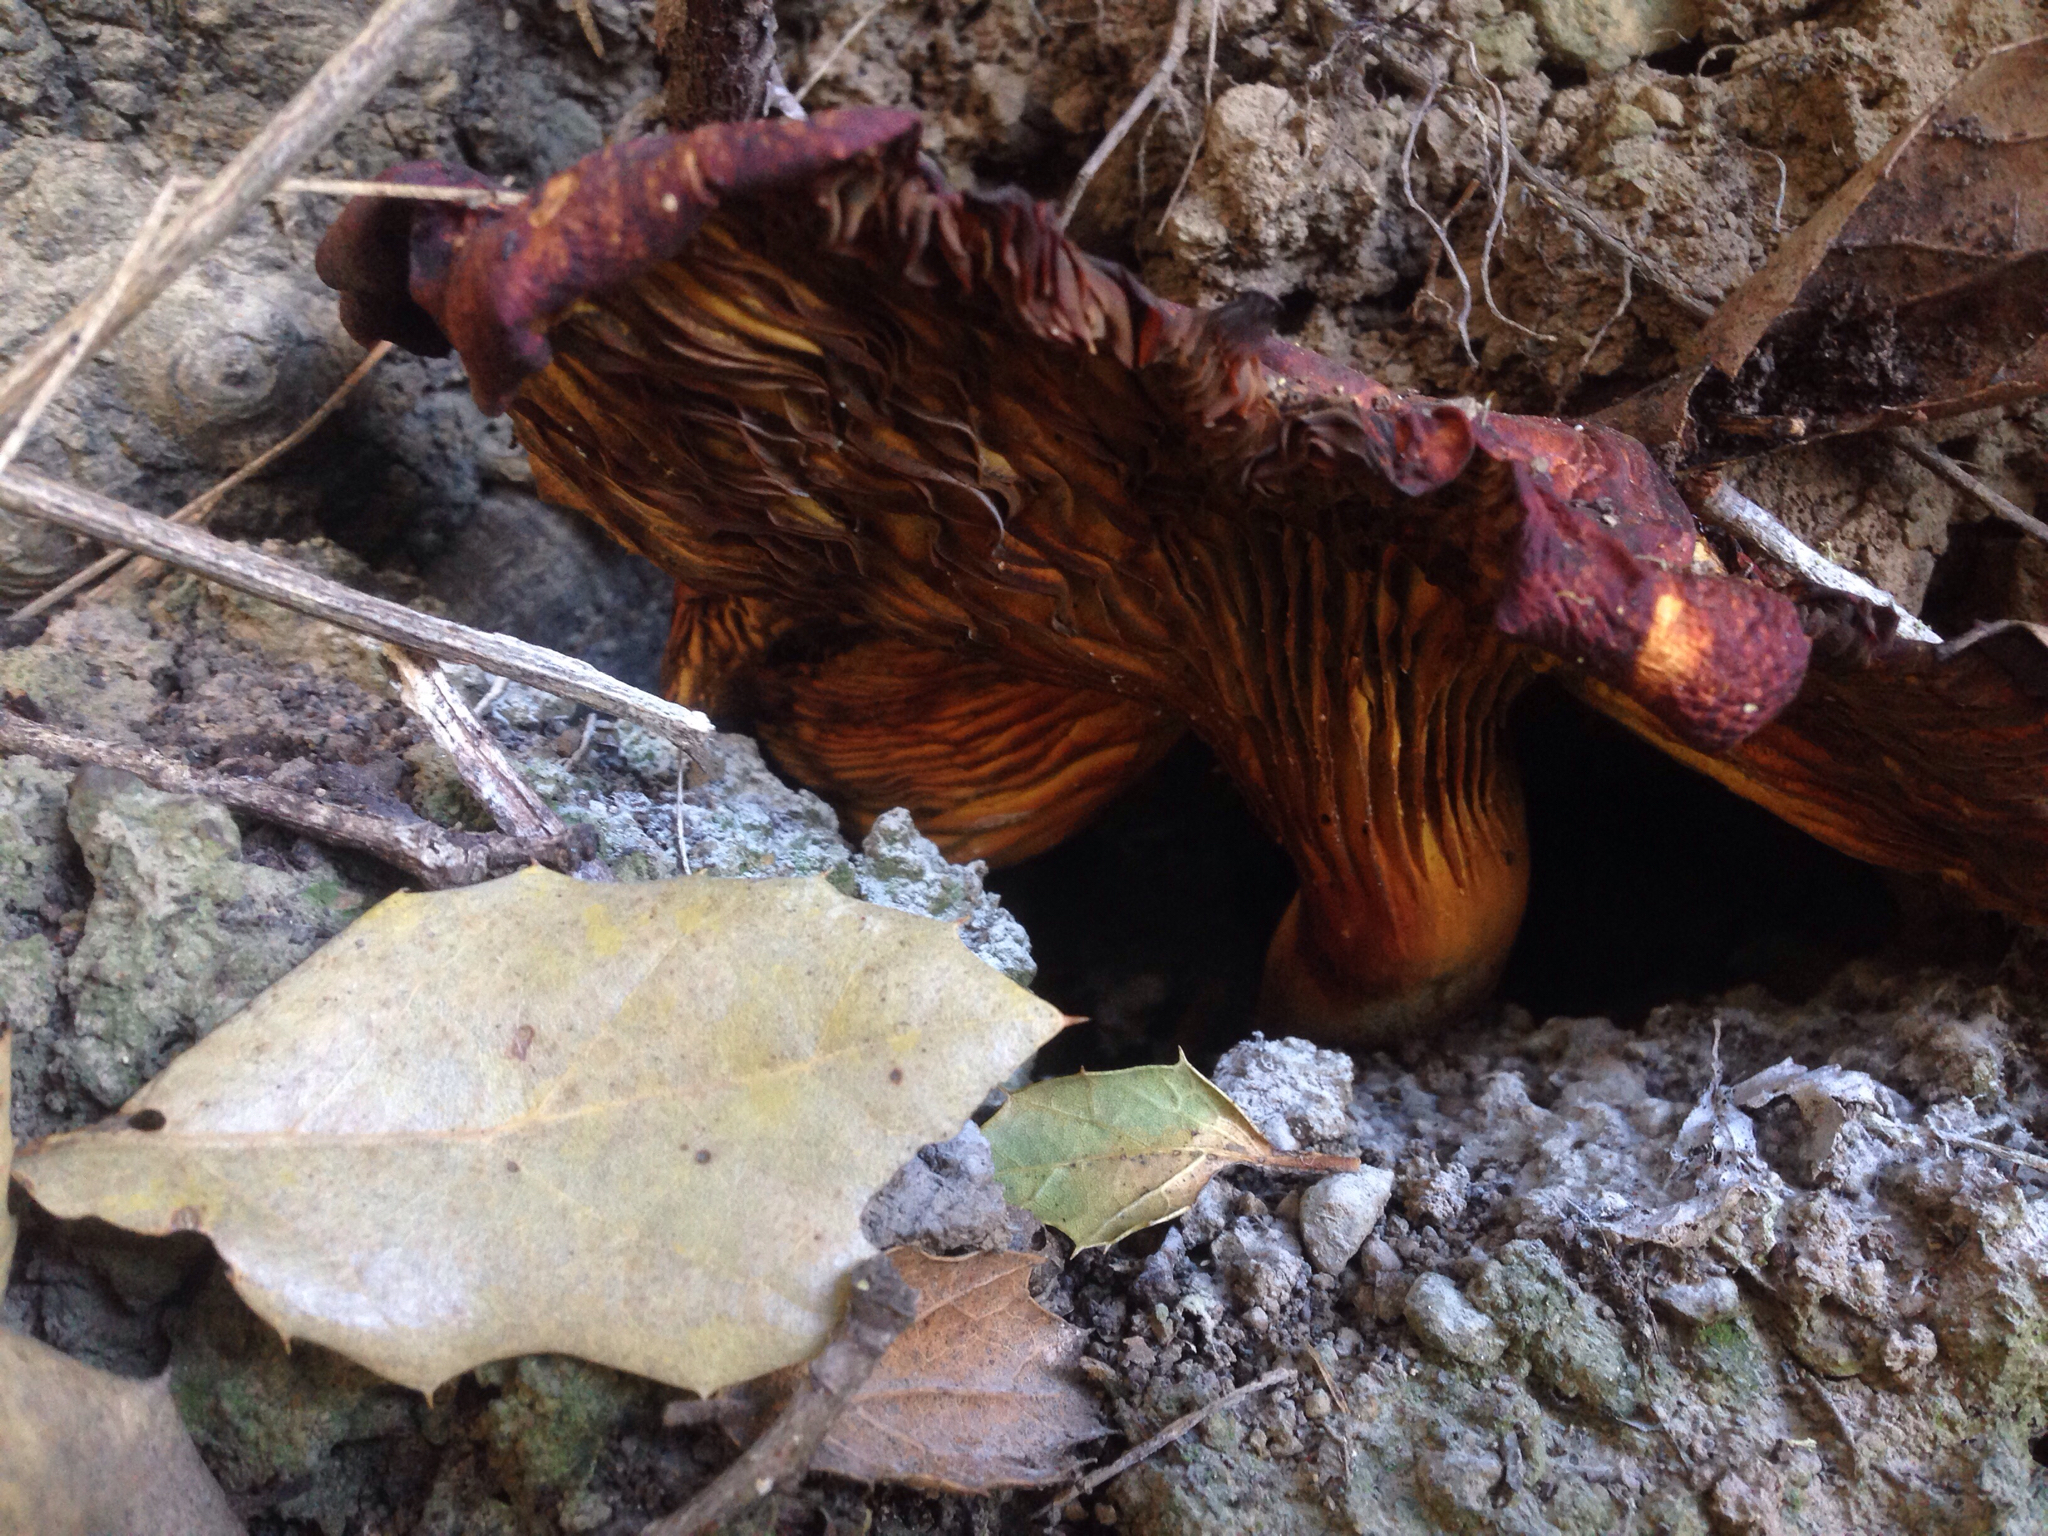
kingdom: Fungi
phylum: Basidiomycota
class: Agaricomycetes
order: Agaricales
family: Omphalotaceae
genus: Omphalotus
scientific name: Omphalotus olivascens
